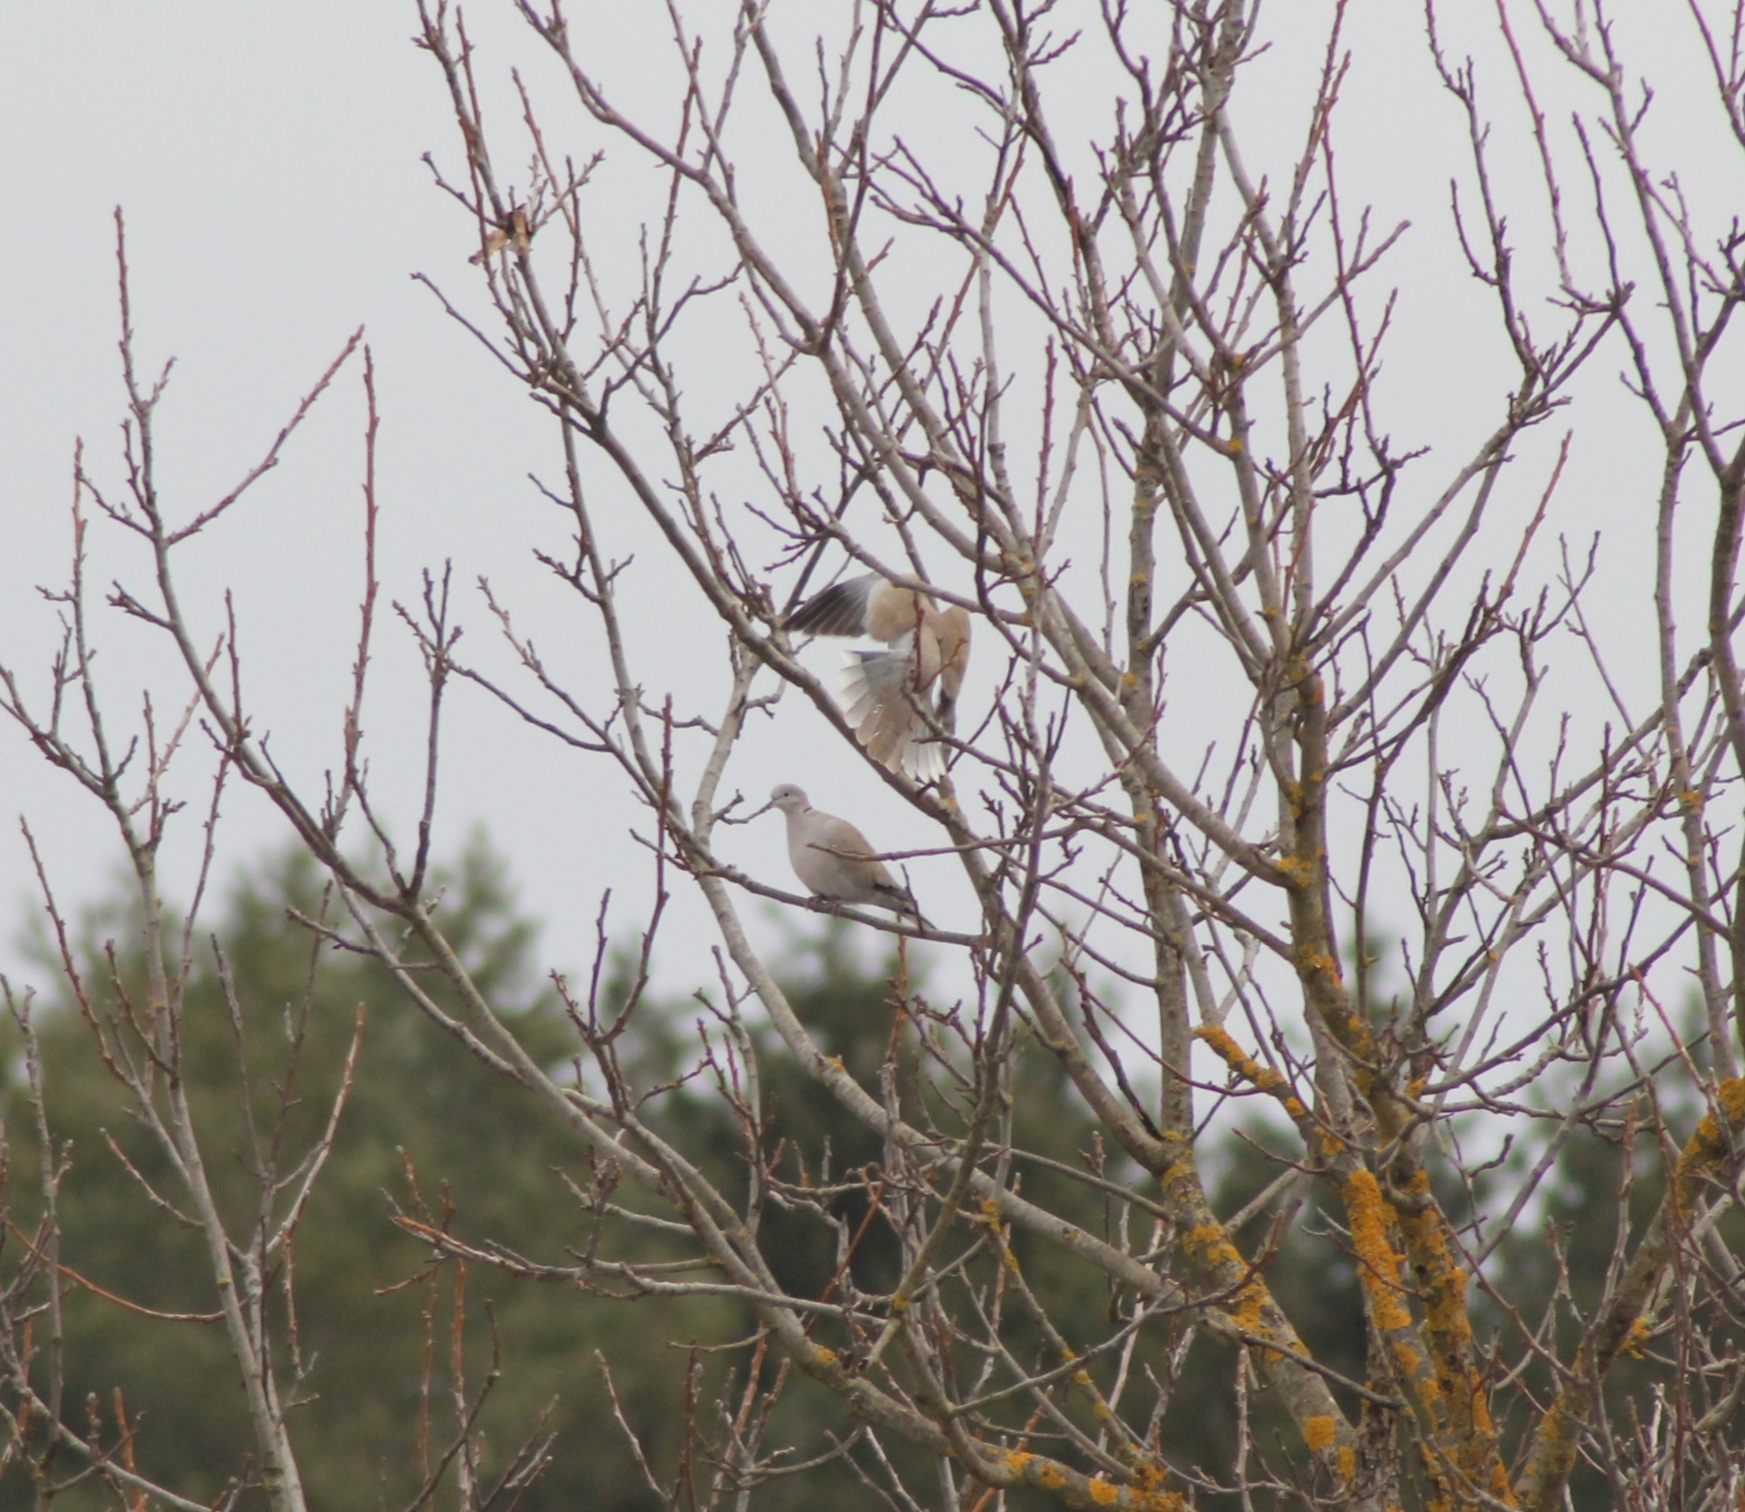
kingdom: Animalia
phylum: Chordata
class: Aves
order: Columbiformes
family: Columbidae
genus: Streptopelia
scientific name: Streptopelia decaocto
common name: Eurasian collared dove
